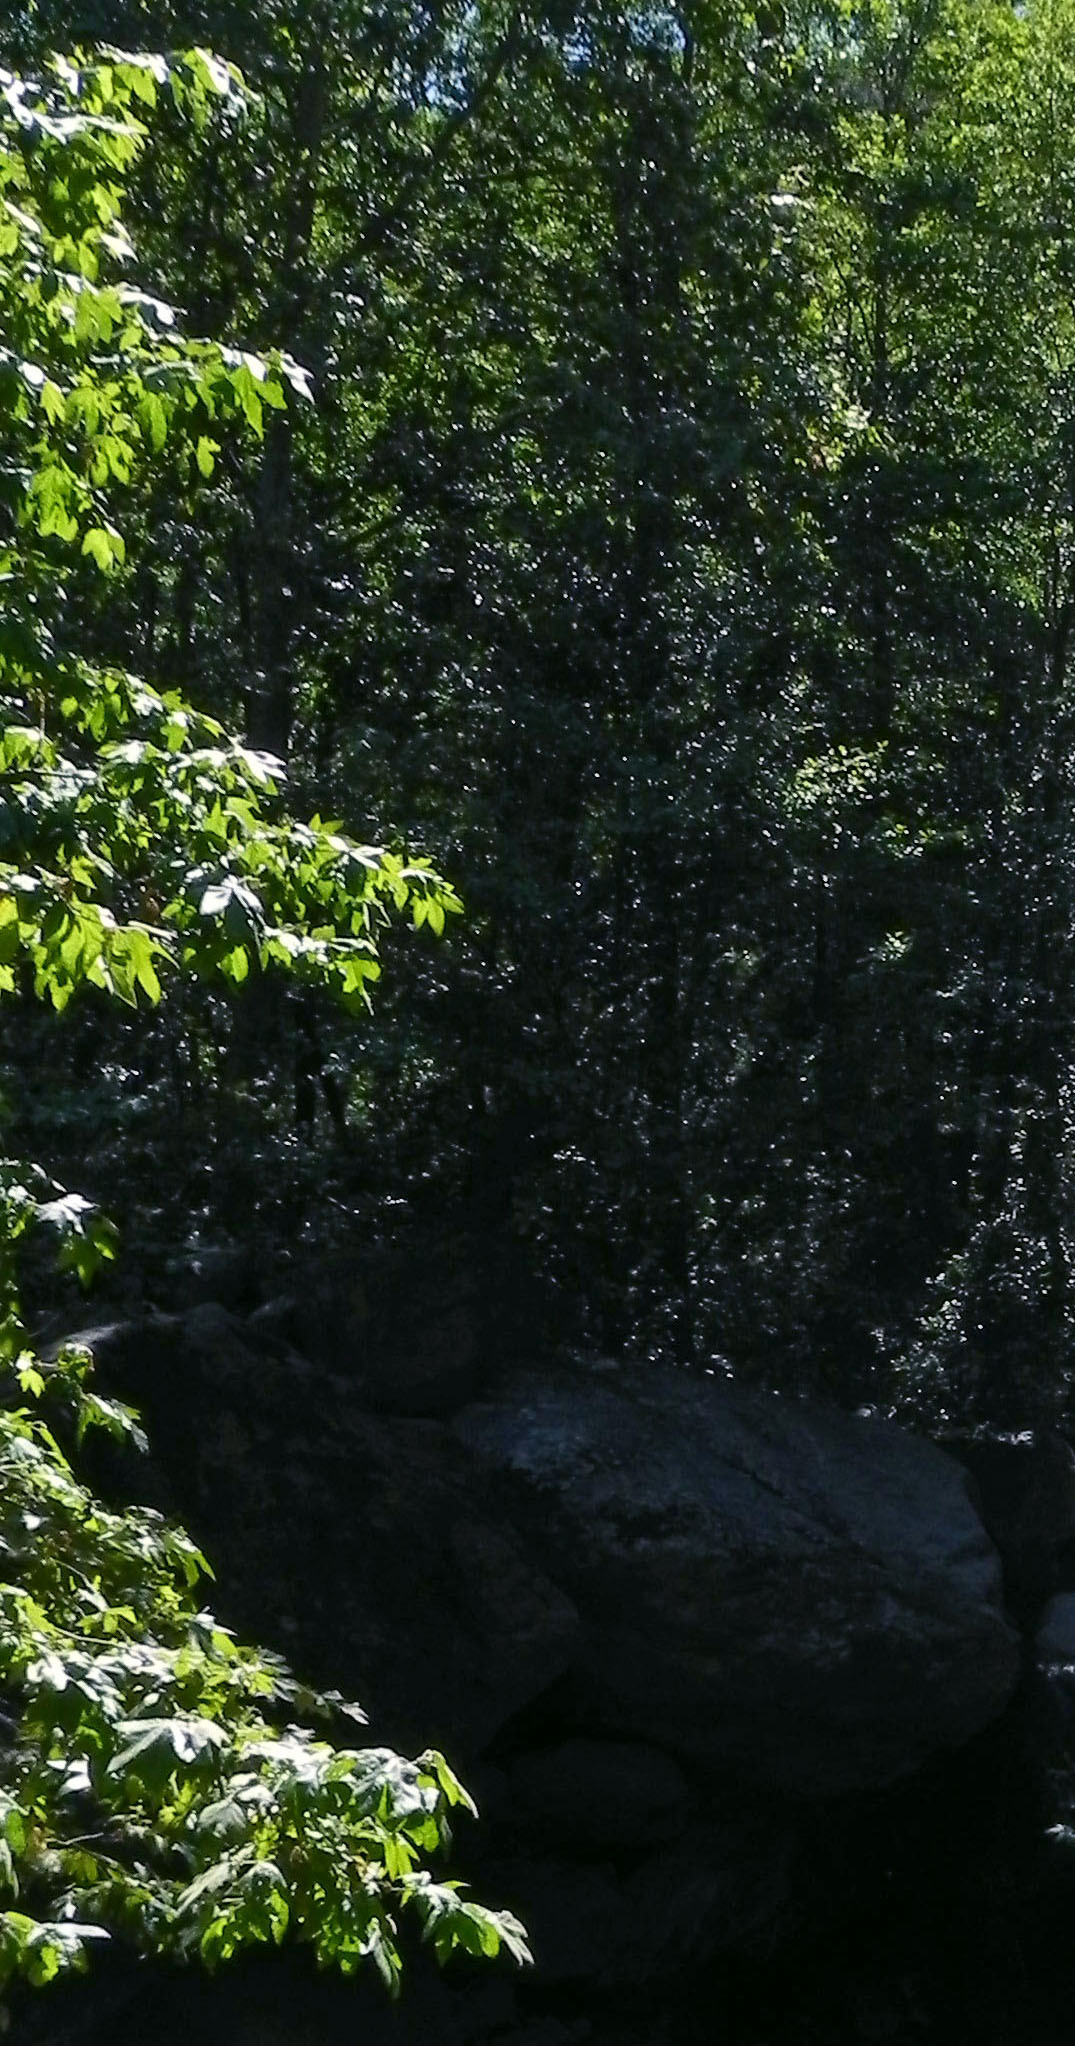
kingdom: Plantae
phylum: Tracheophyta
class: Magnoliopsida
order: Proteales
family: Platanaceae
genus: Platanus
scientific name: Platanus racemosa
